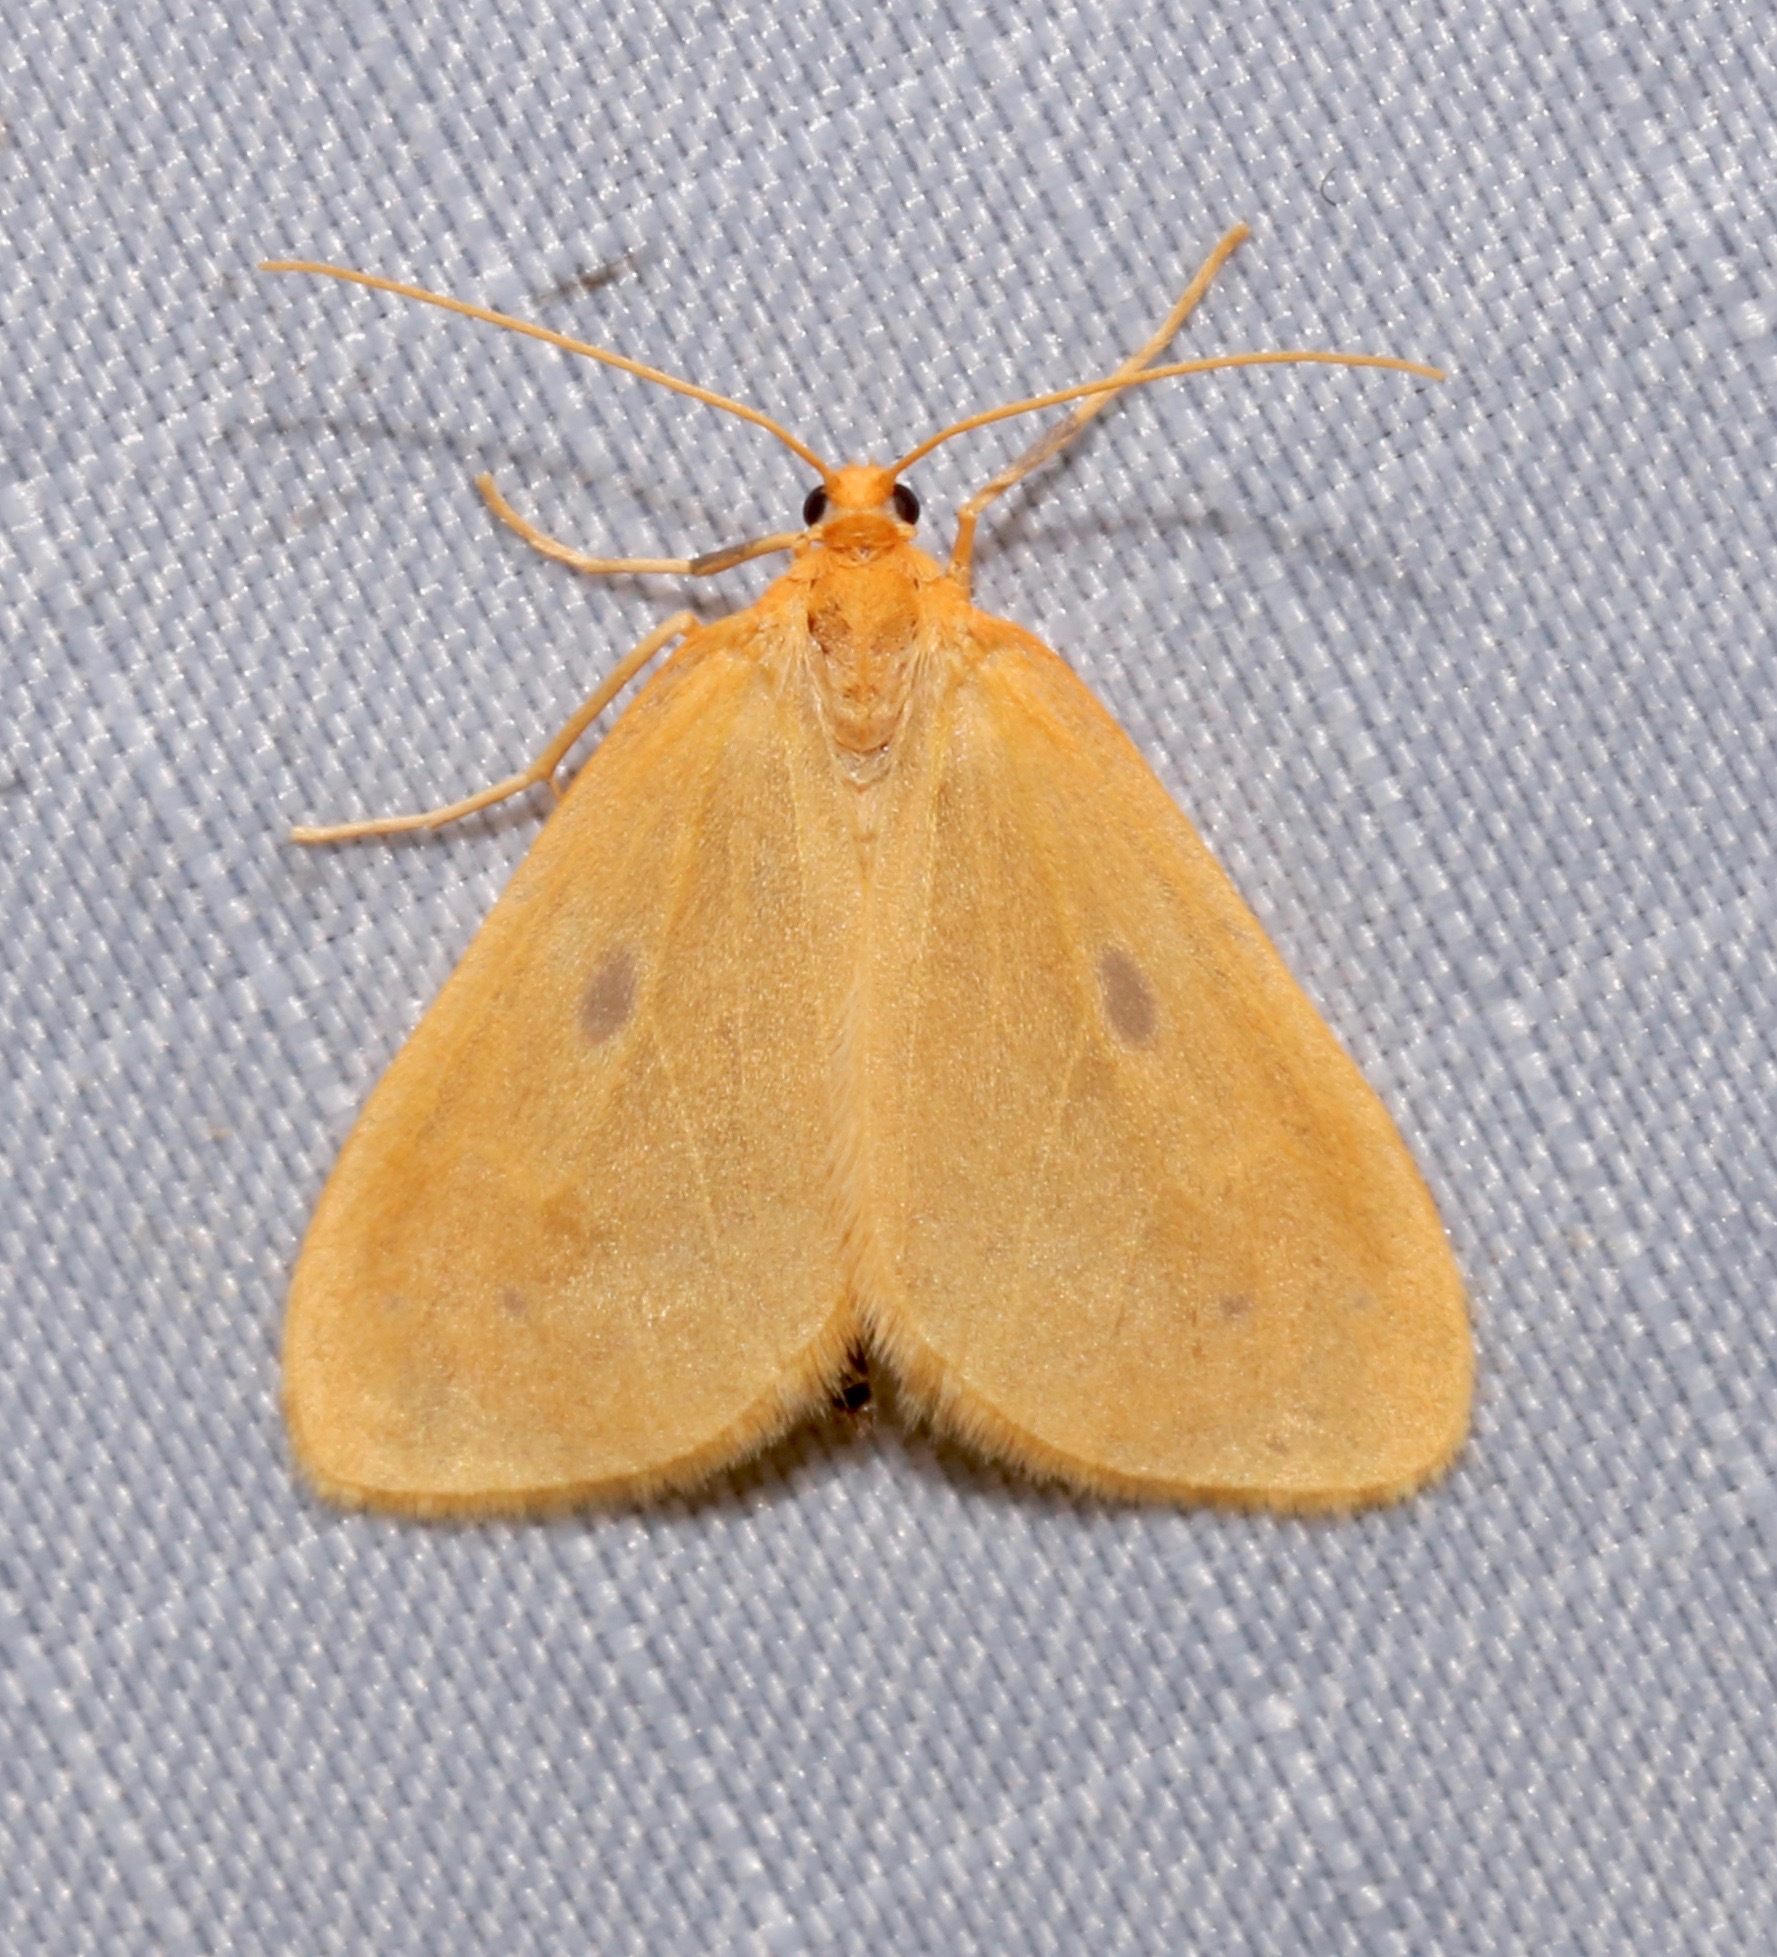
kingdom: Animalia
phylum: Arthropoda
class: Insecta
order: Lepidoptera
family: Geometridae
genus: Eubaphe
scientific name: Eubaphe meridiana
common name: Little beggar
